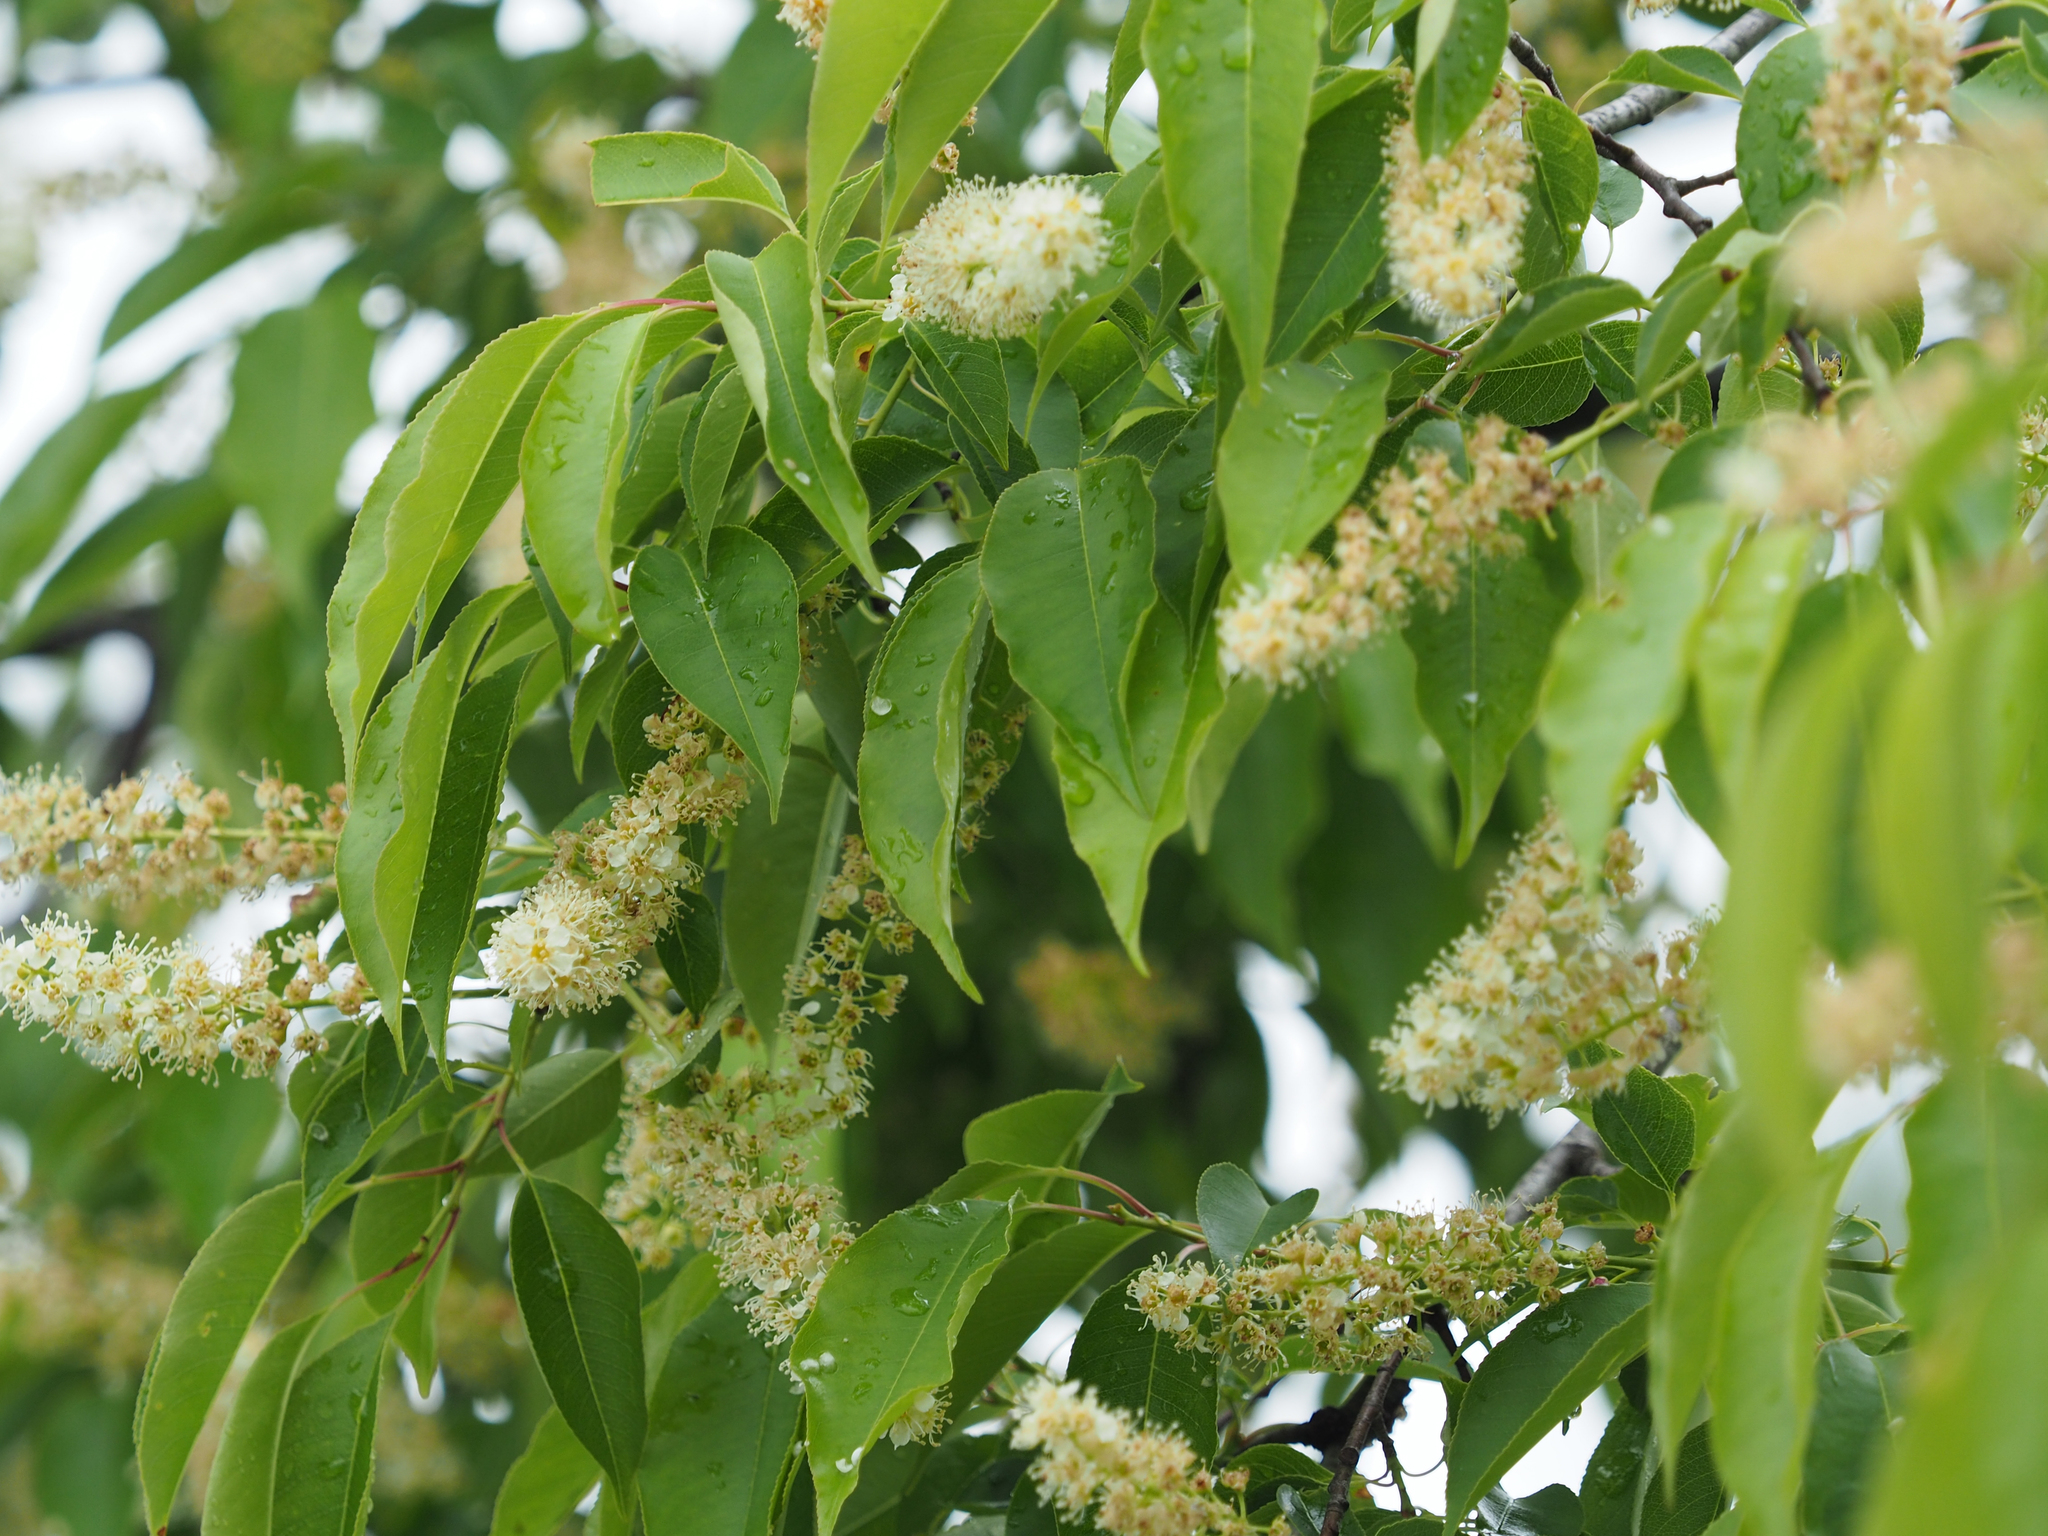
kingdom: Plantae
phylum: Tracheophyta
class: Magnoliopsida
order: Rosales
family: Rosaceae
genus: Prunus
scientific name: Prunus serotina
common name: Black cherry
